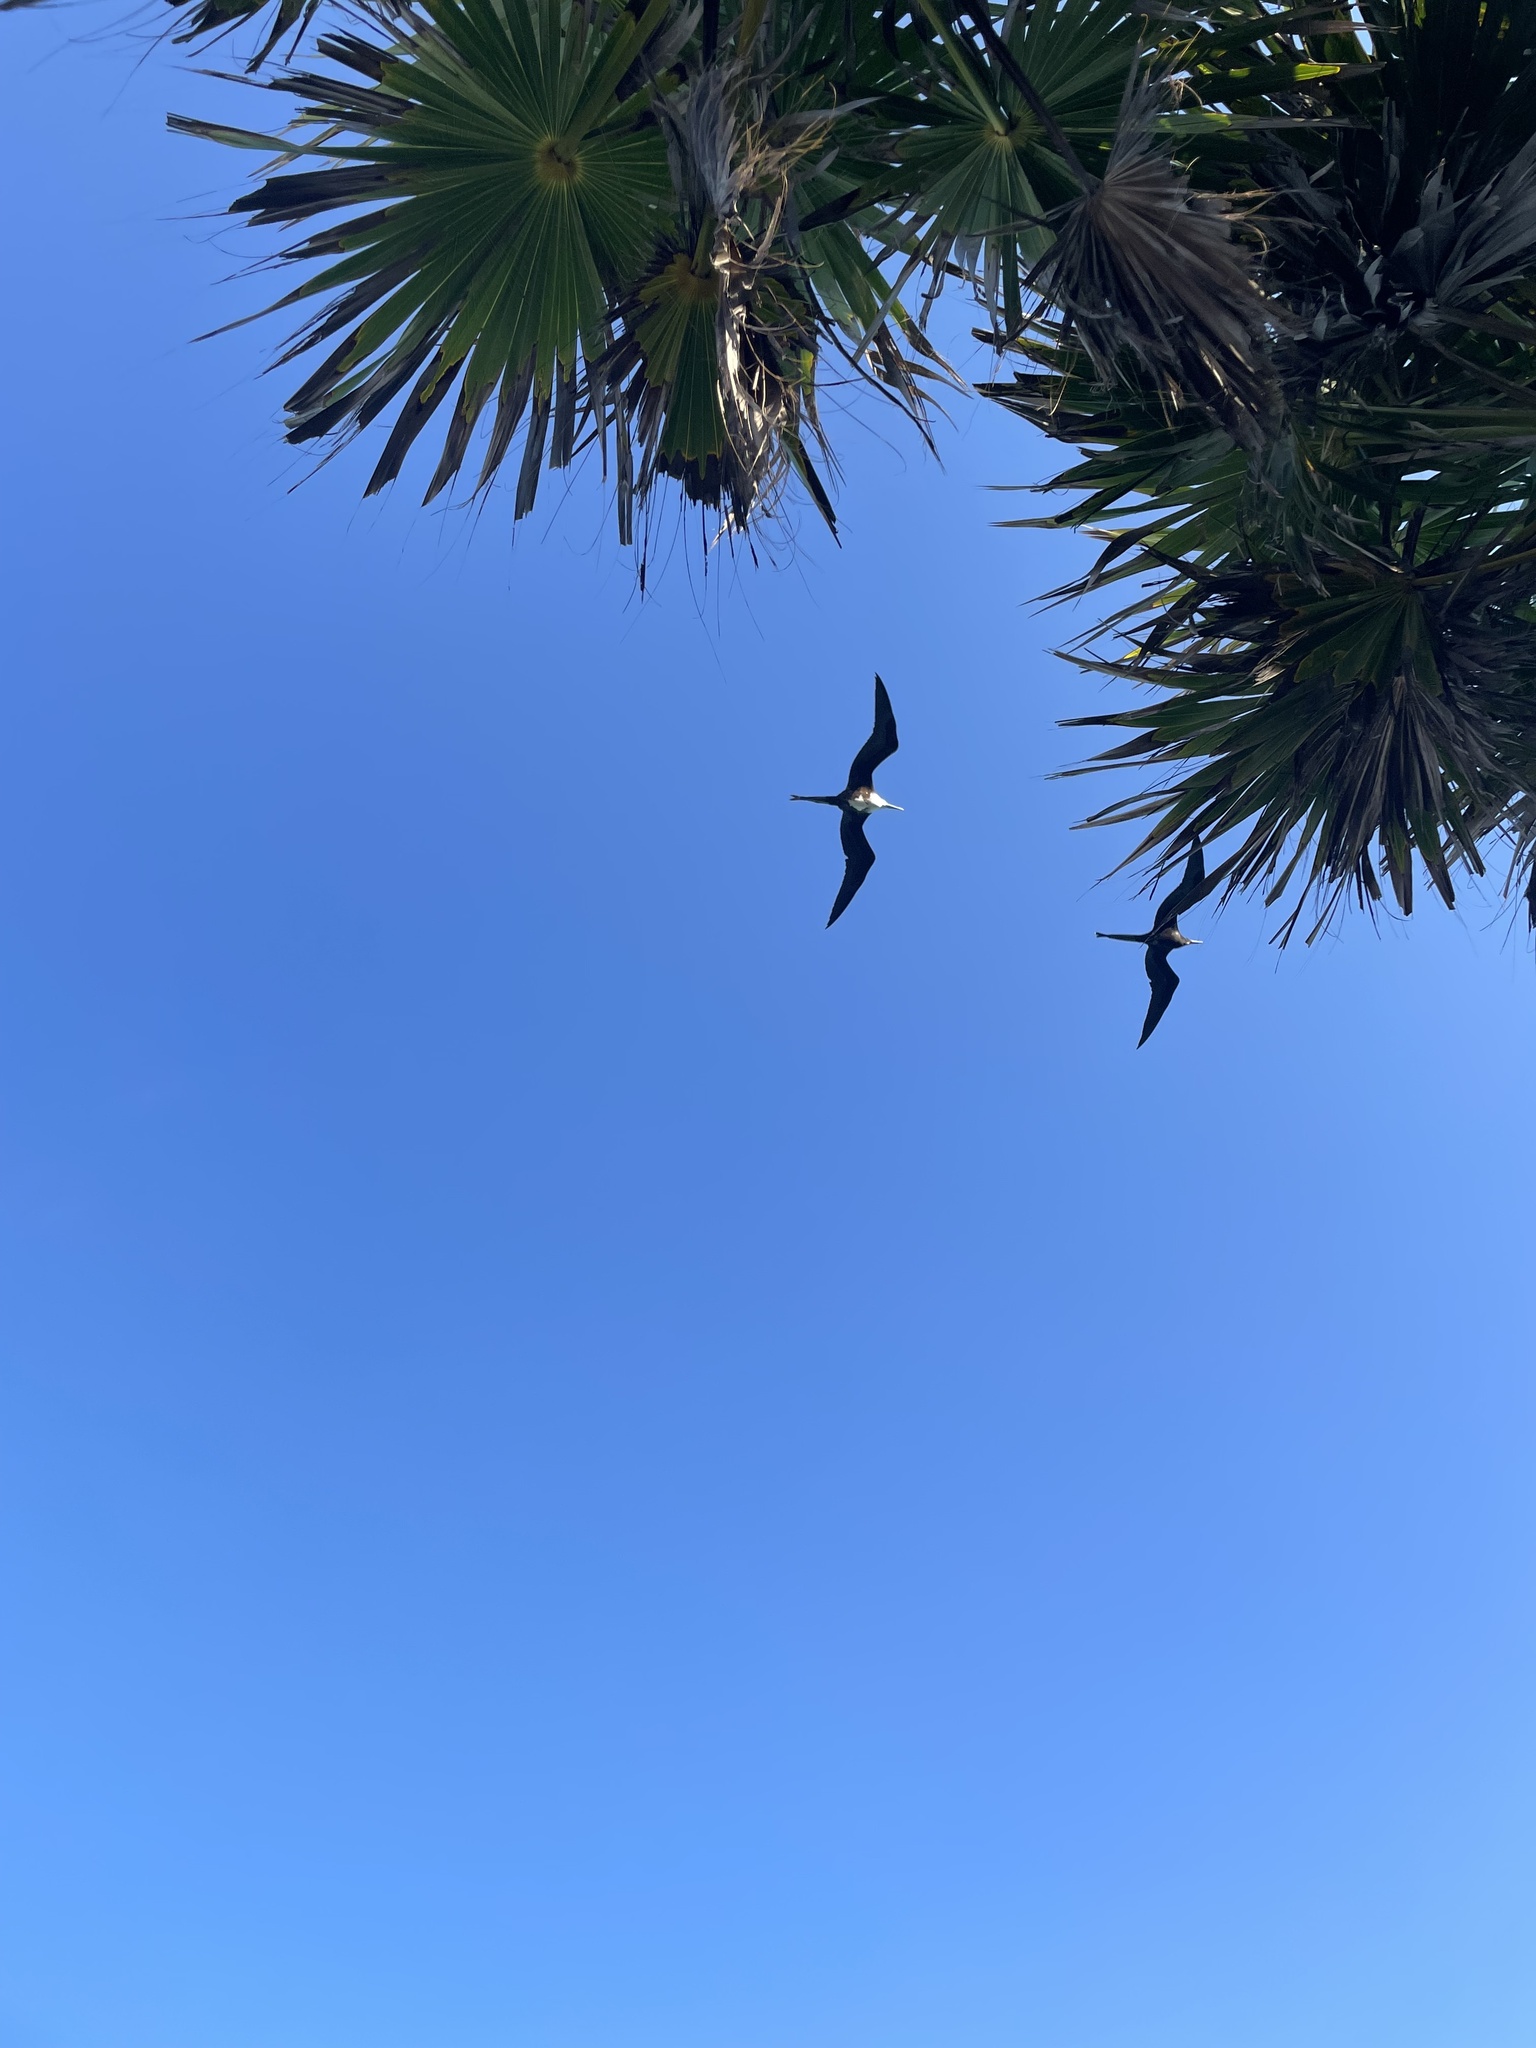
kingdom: Animalia
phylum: Chordata
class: Aves
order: Suliformes
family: Fregatidae
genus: Fregata
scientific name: Fregata magnificens
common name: Magnificent frigatebird
